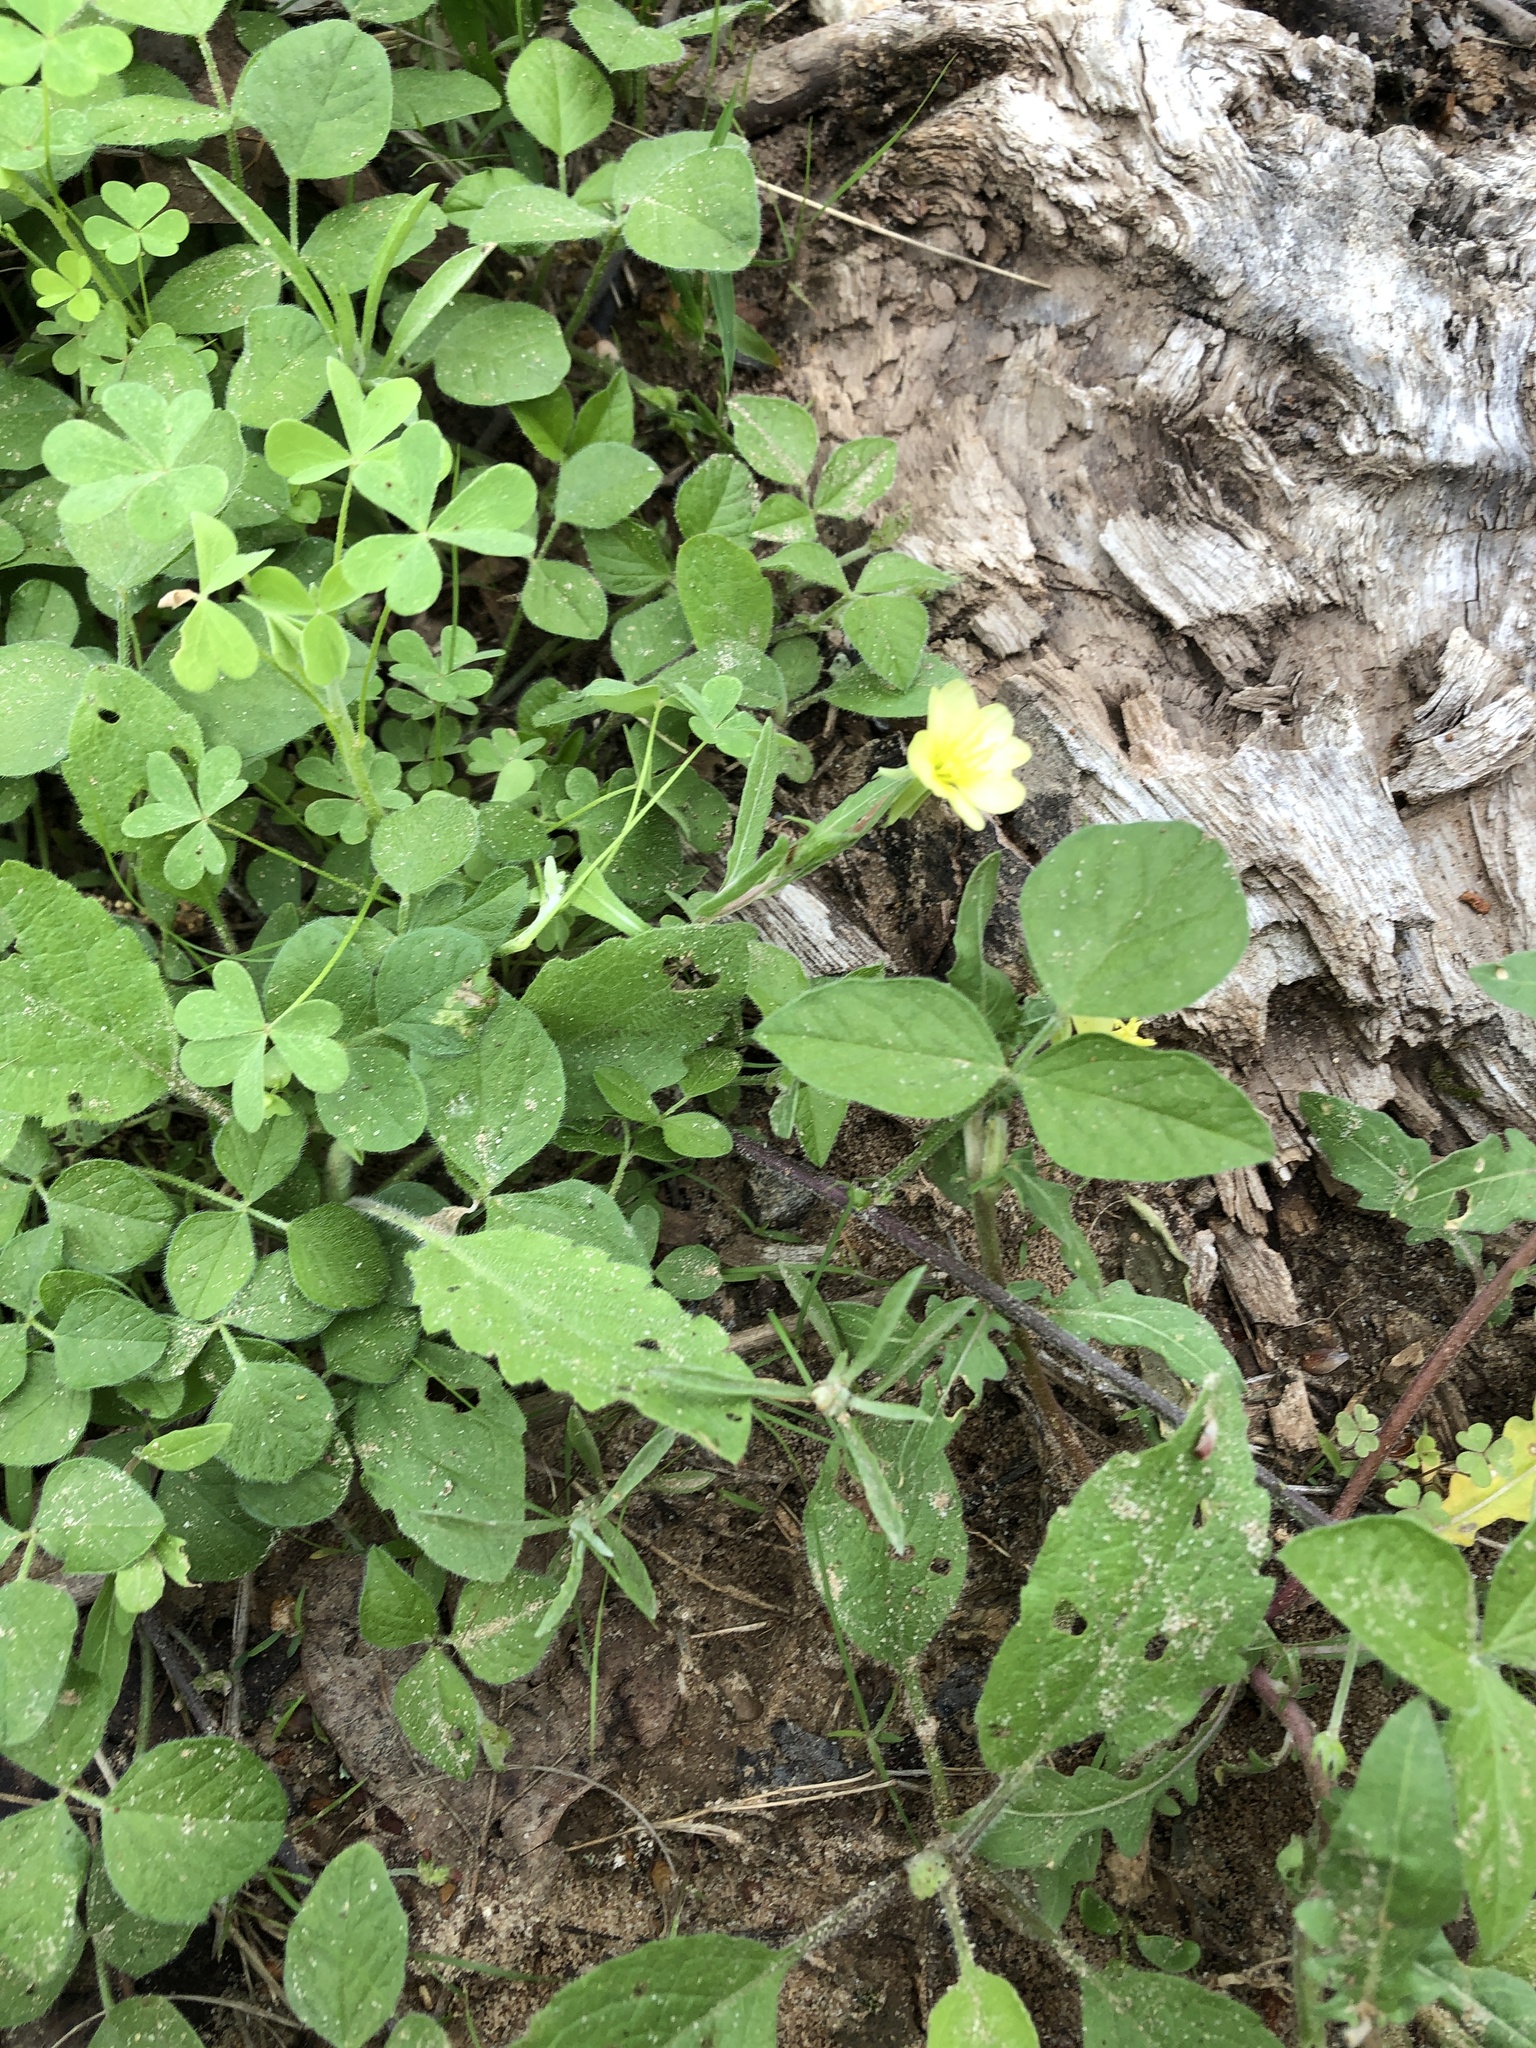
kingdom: Plantae
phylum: Tracheophyta
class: Magnoliopsida
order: Myrtales
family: Onagraceae
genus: Oenothera
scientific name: Oenothera laciniata
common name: Cut-leaved evening-primrose
